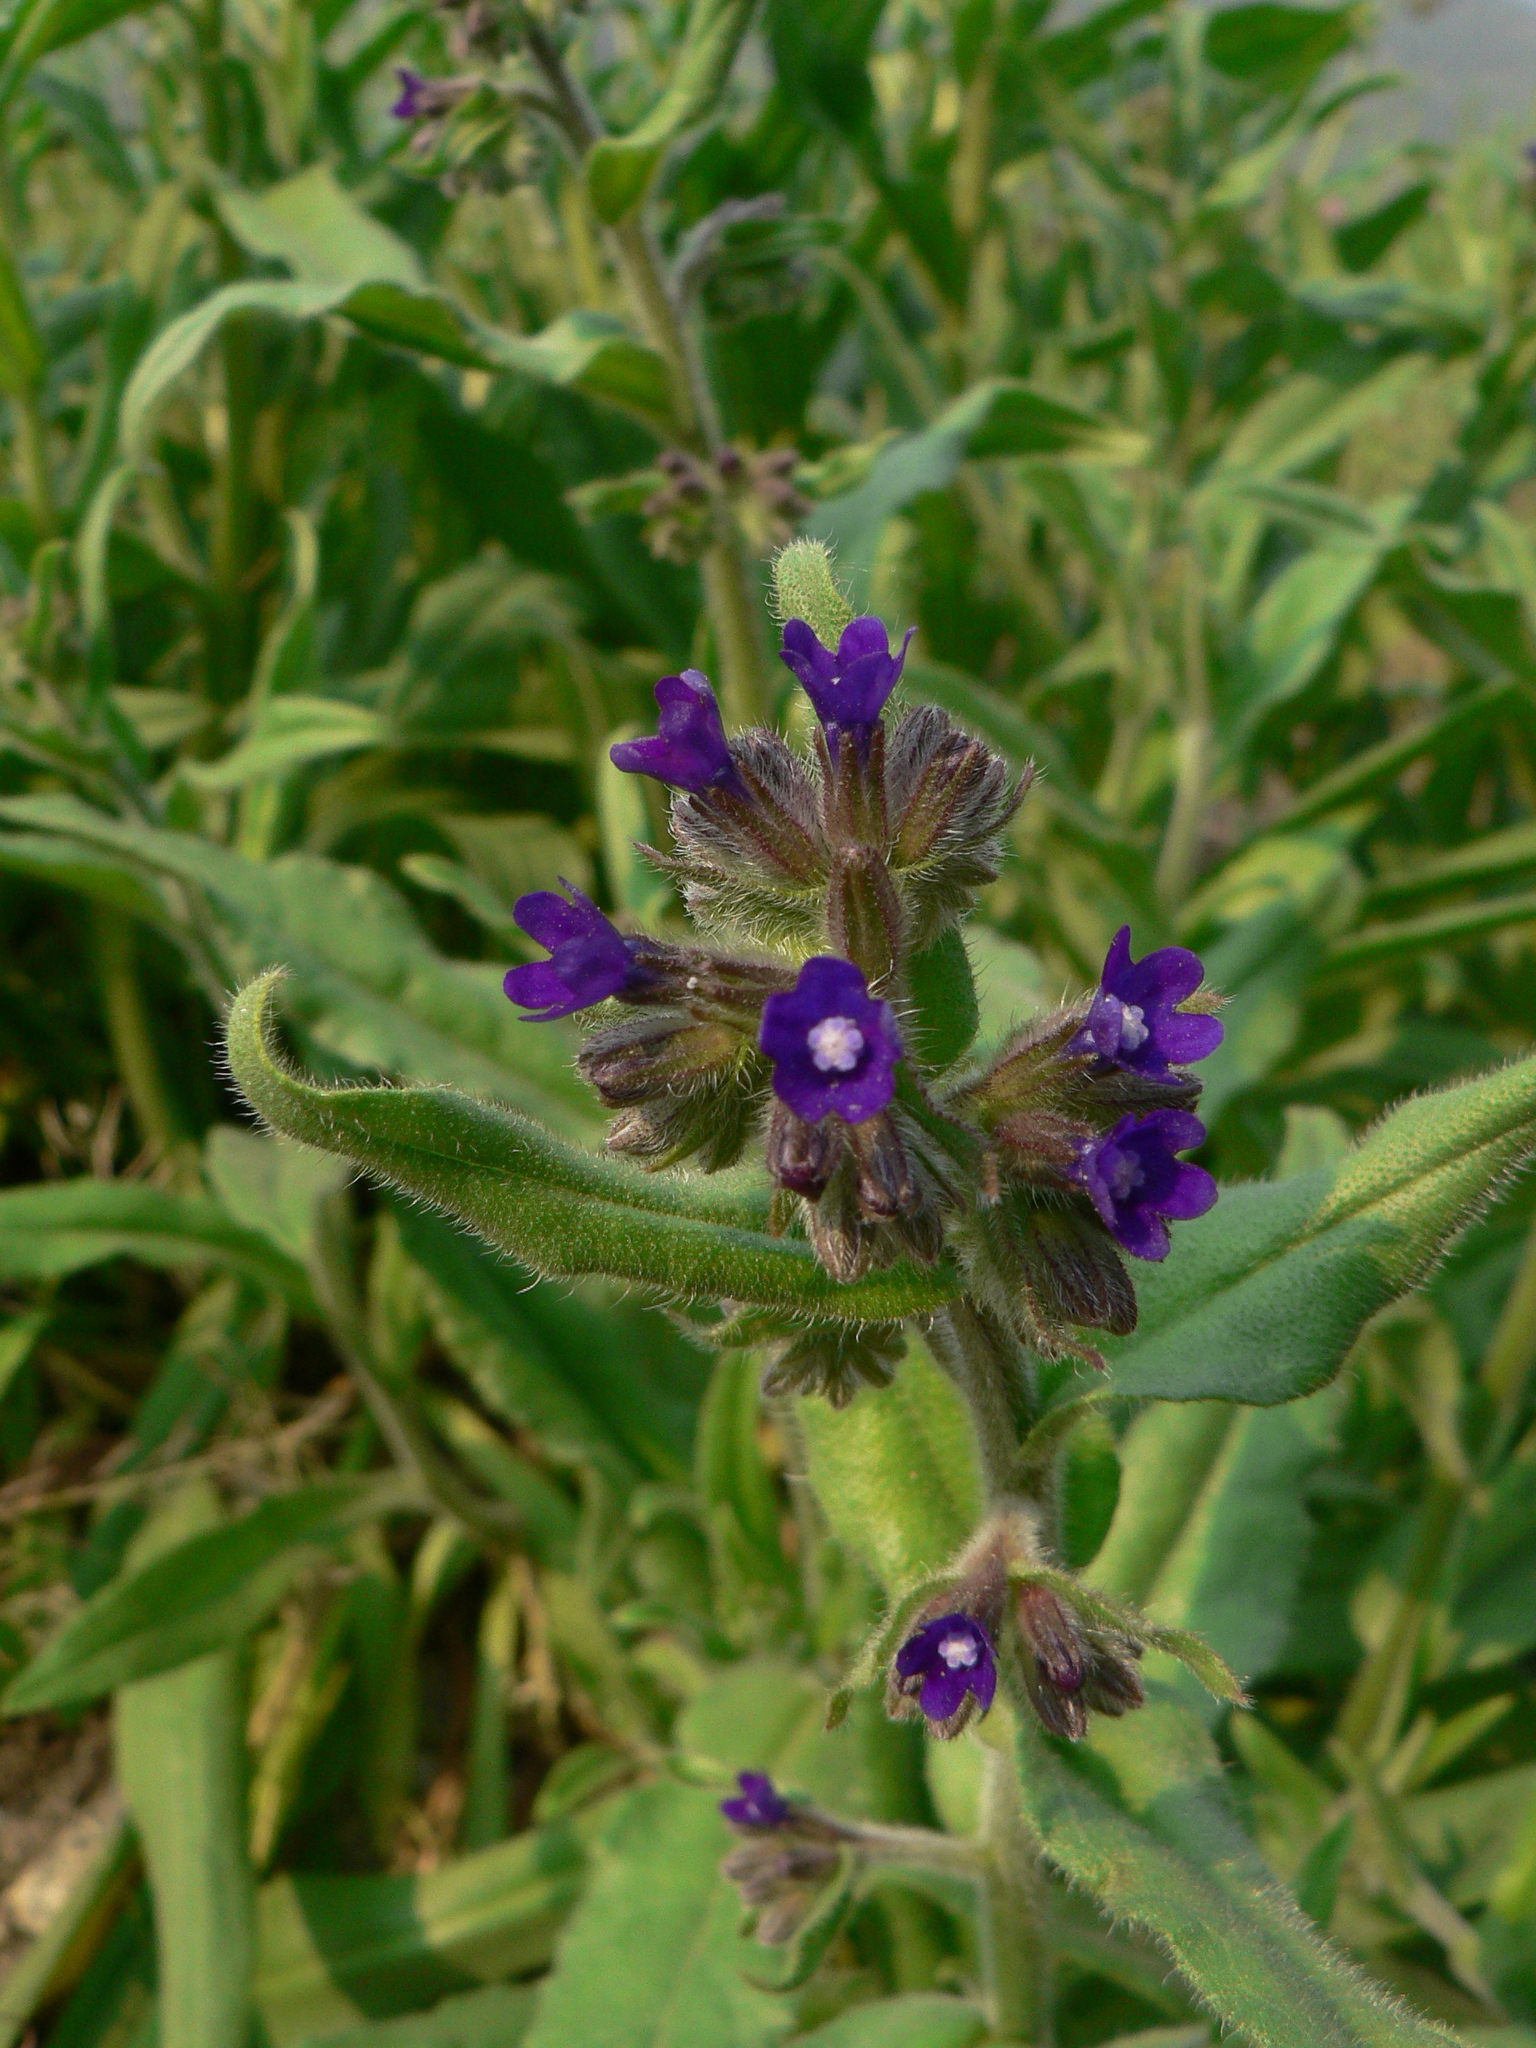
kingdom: Plantae
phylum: Tracheophyta
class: Magnoliopsida
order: Boraginales
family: Boraginaceae
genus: Anchusa
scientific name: Anchusa officinalis
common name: Alkanet
